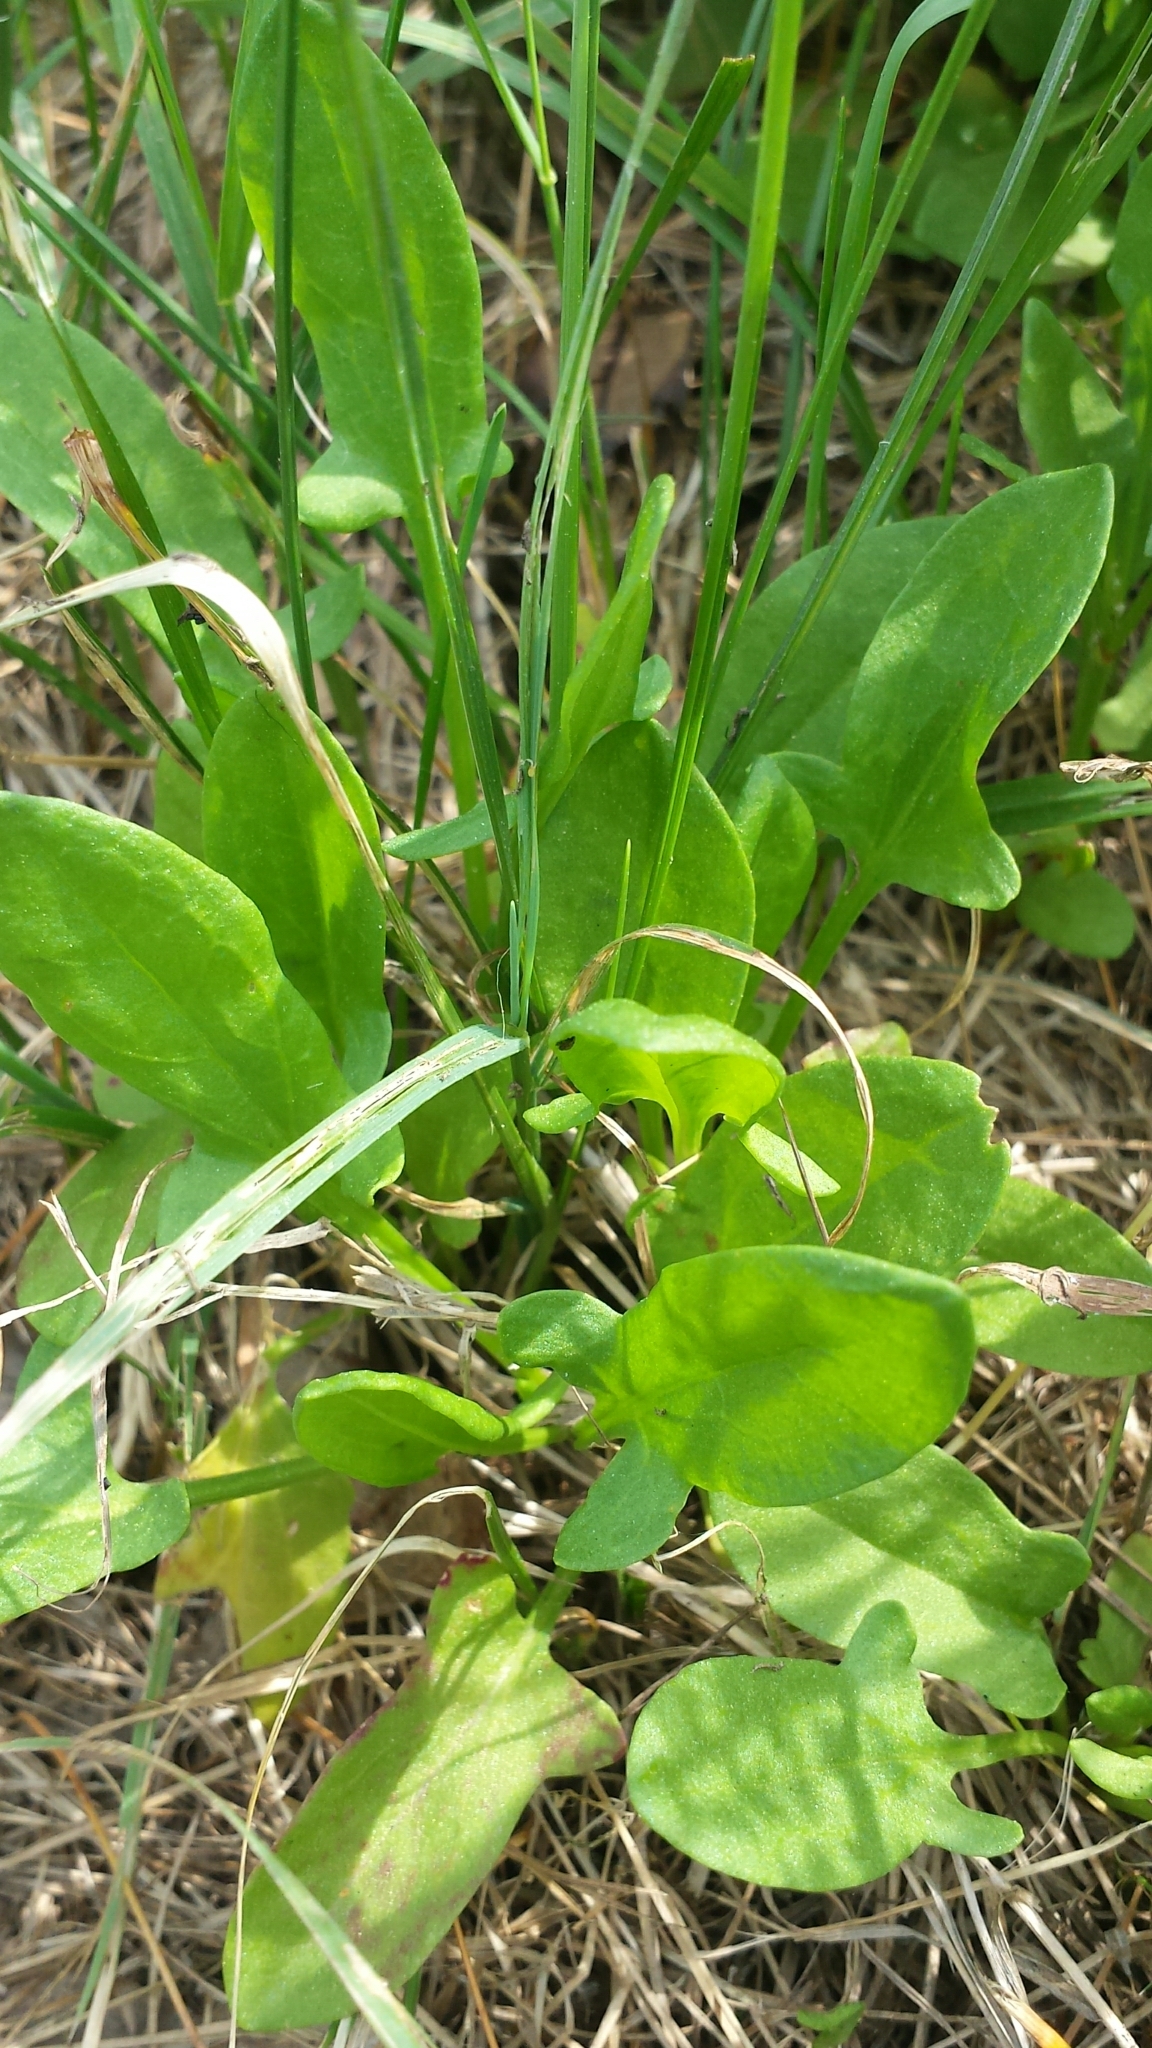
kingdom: Plantae
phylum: Tracheophyta
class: Magnoliopsida
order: Caryophyllales
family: Polygonaceae
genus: Rumex
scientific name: Rumex acetosella
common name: Common sheep sorrel
